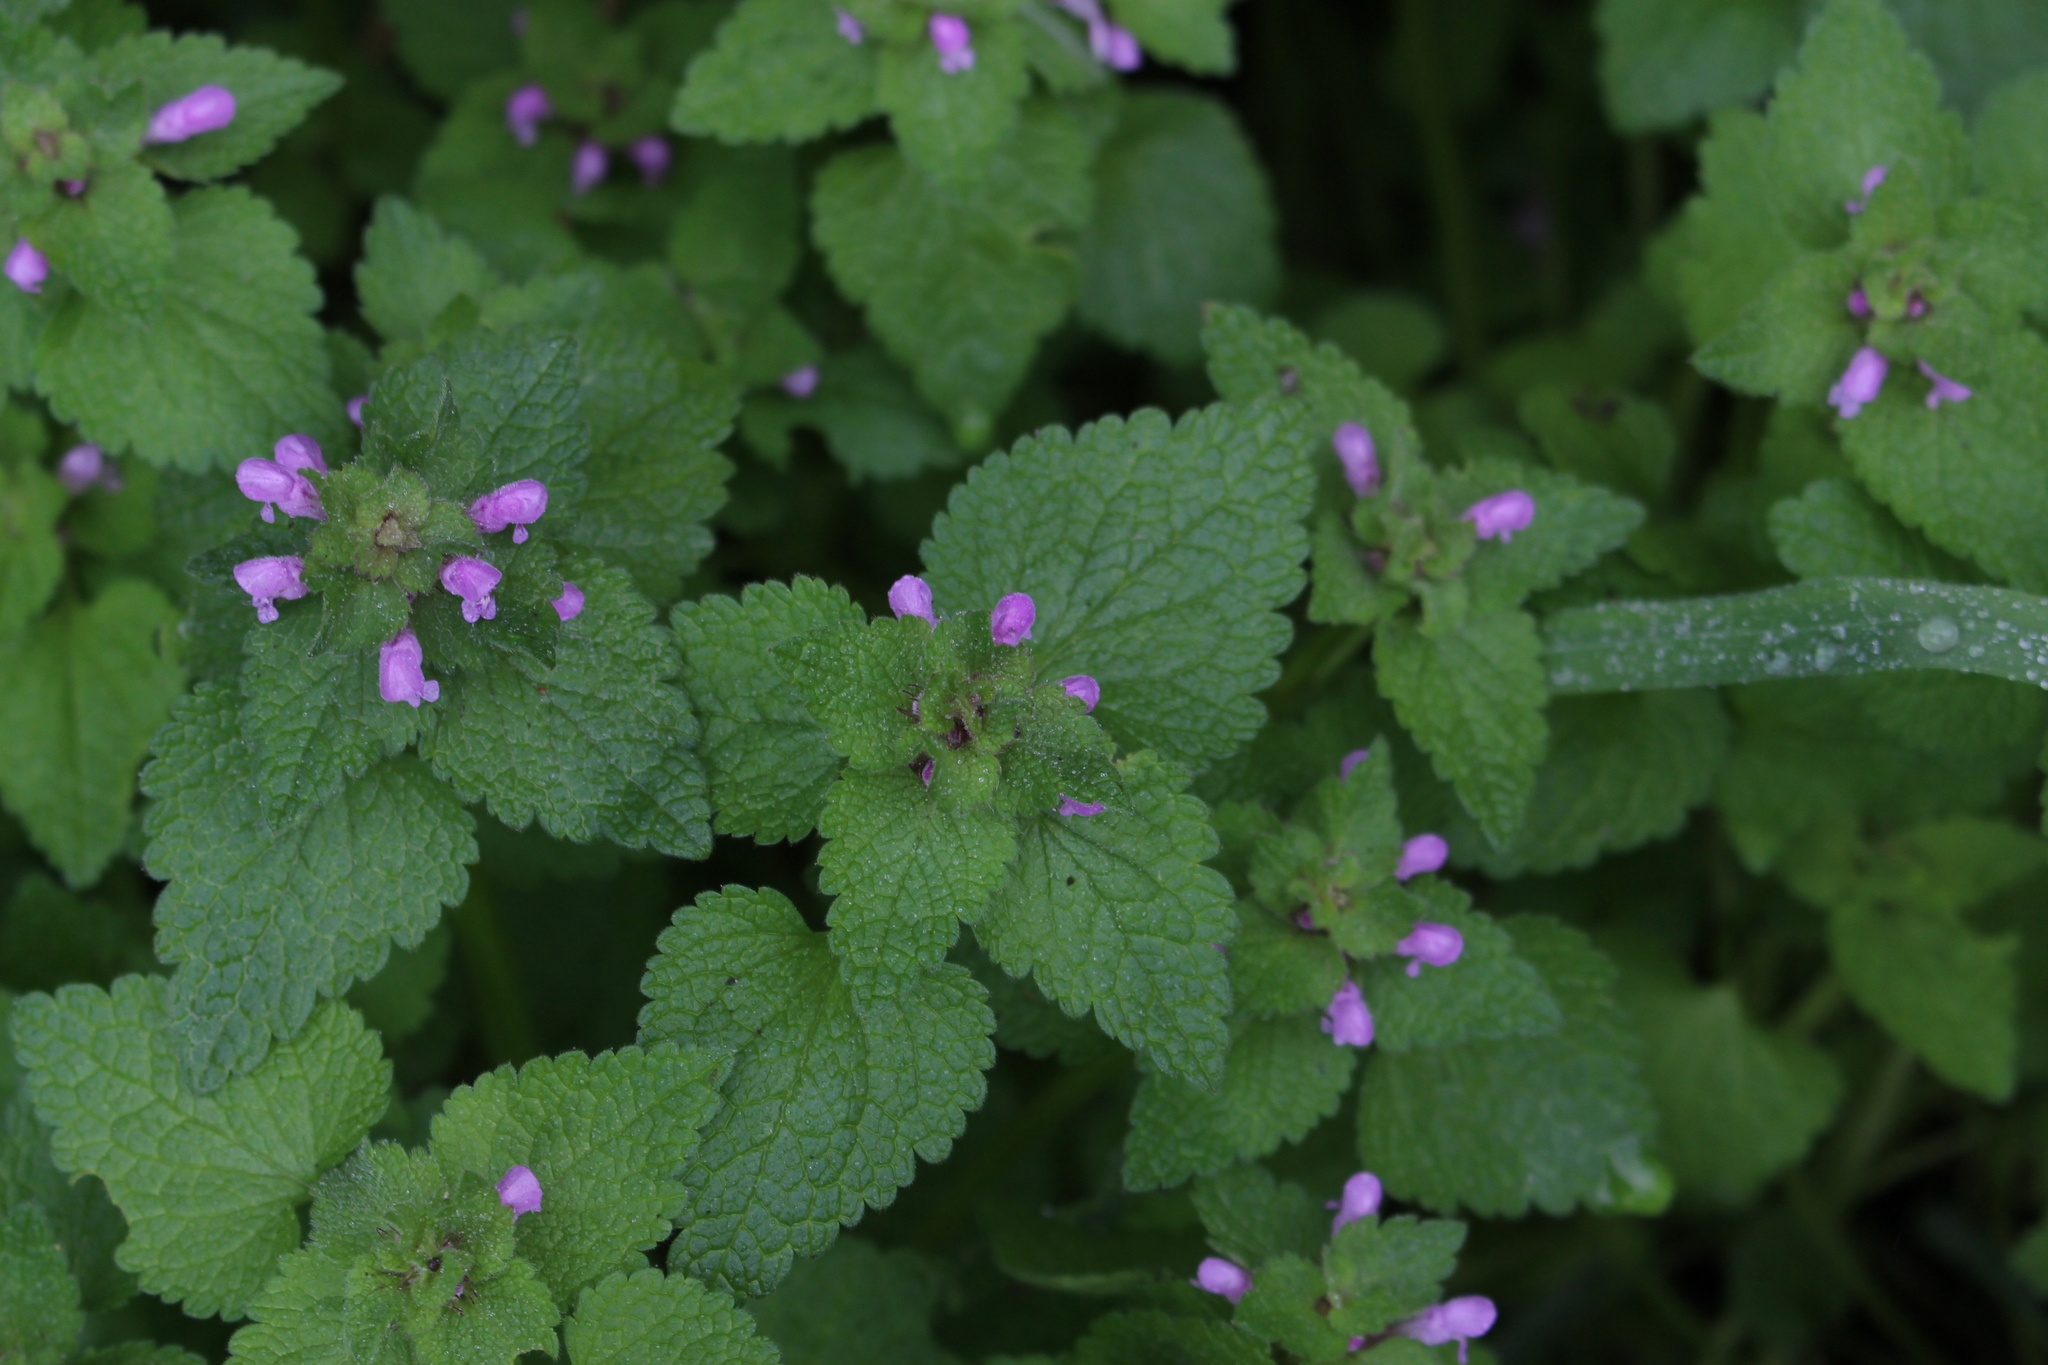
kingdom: Plantae
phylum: Tracheophyta
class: Magnoliopsida
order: Lamiales
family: Lamiaceae
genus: Lamium
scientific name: Lamium purpureum
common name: Red dead-nettle
